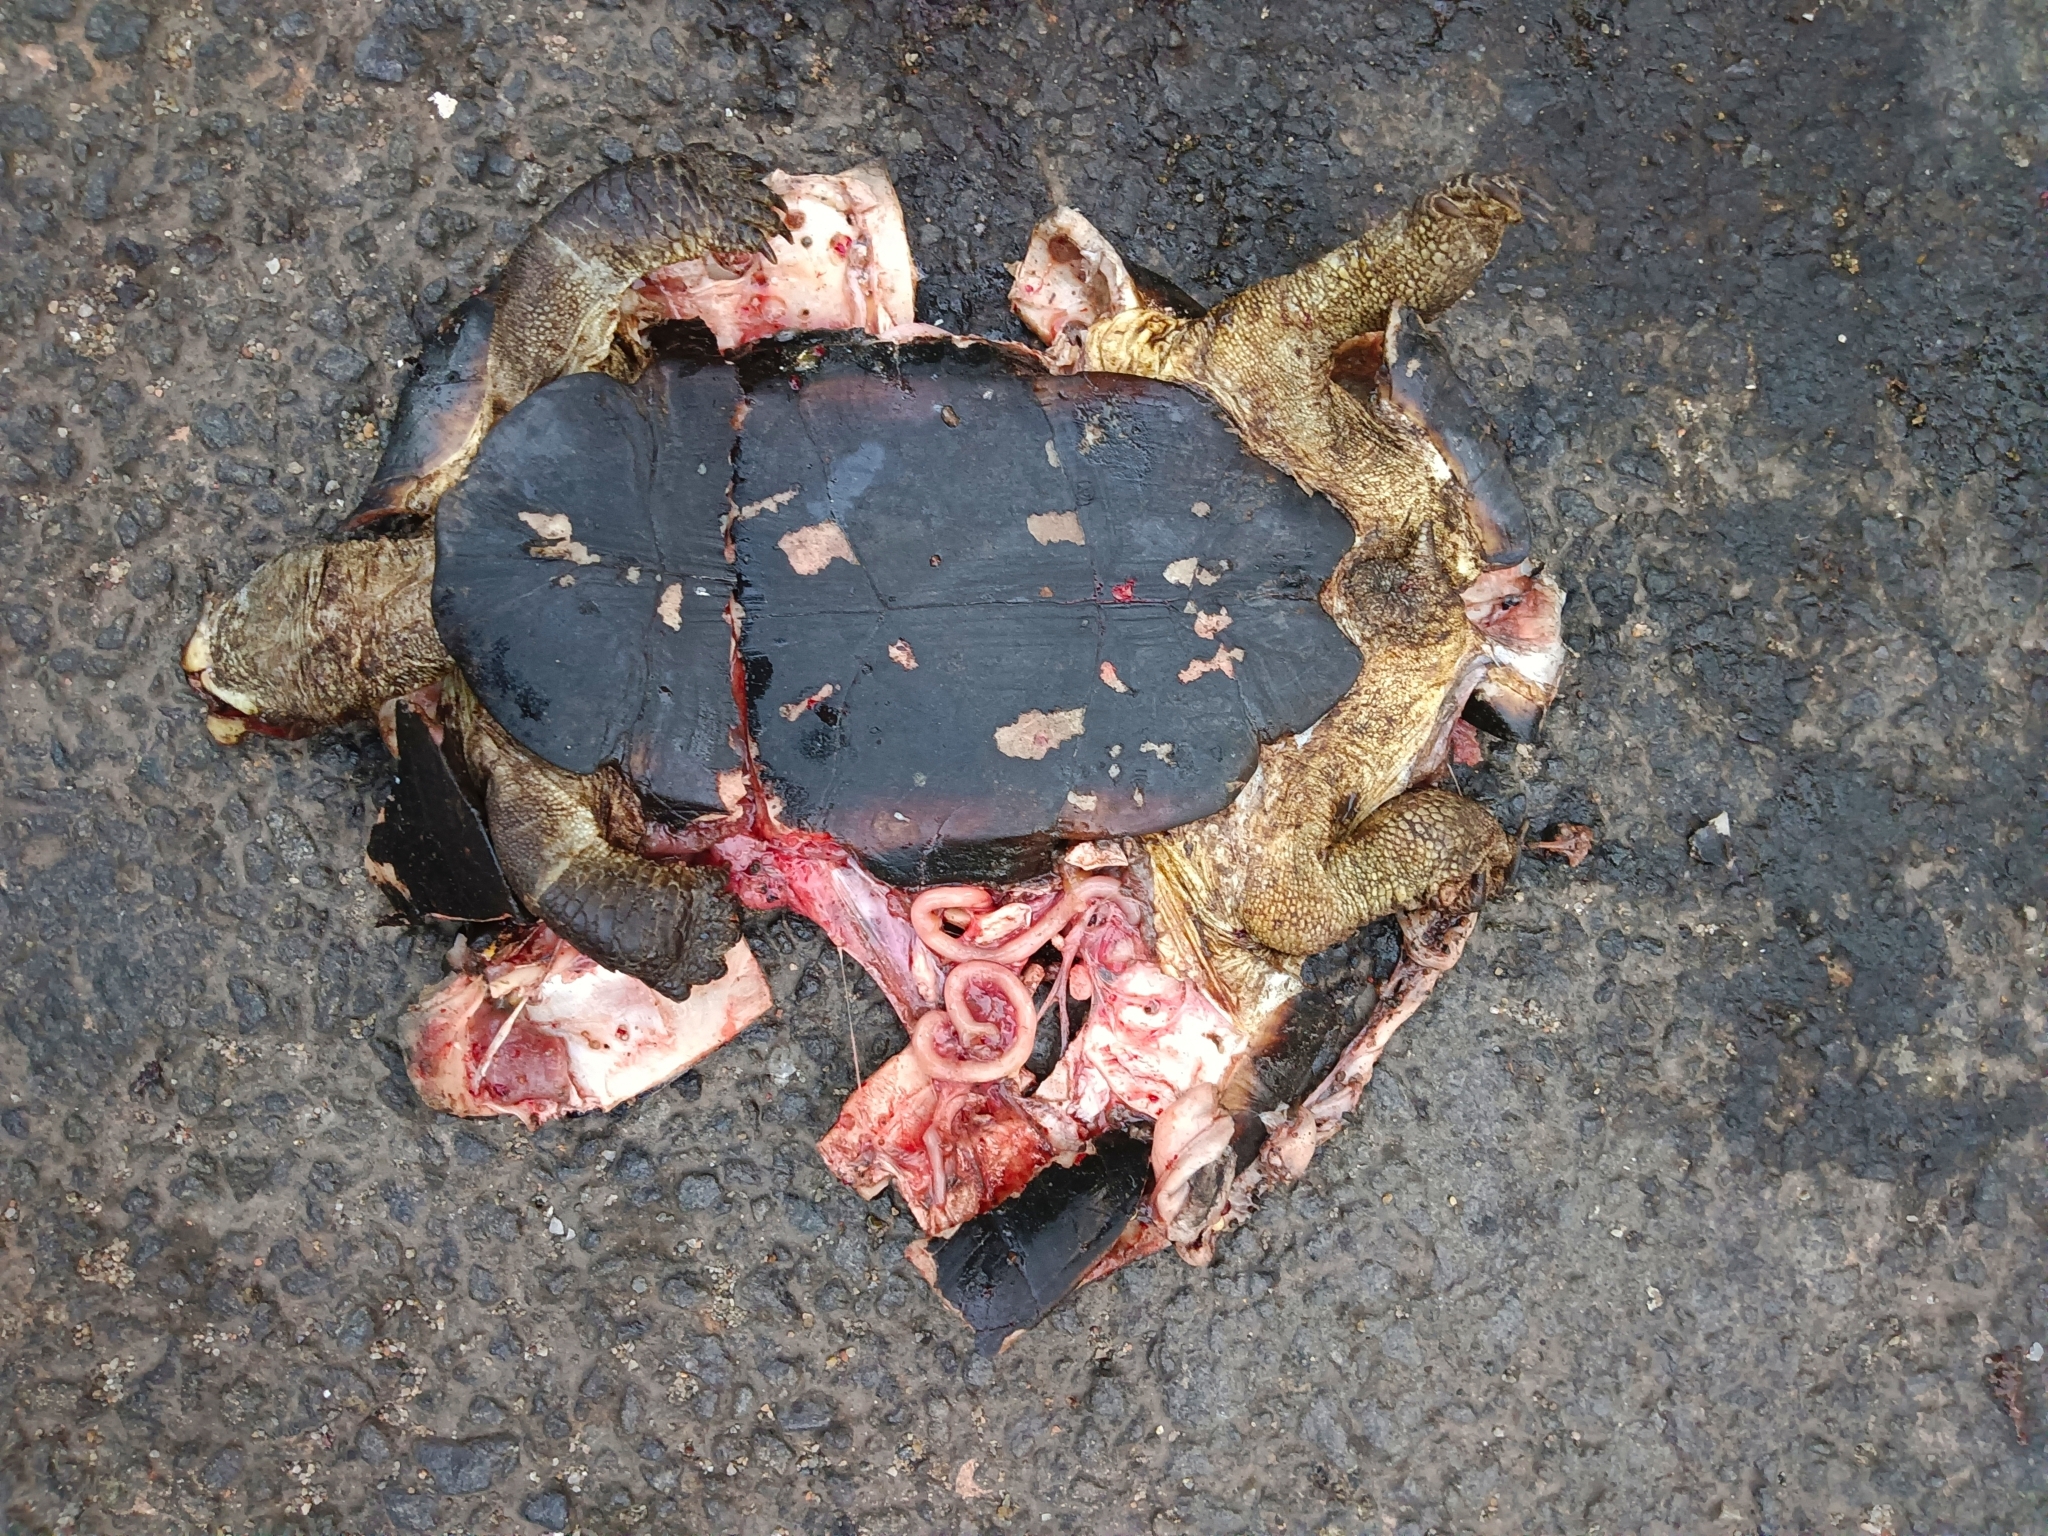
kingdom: Animalia
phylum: Chordata
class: Testudines
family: Geoemydidae
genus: Melanochelys
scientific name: Melanochelys trijuga
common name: Indian black turtle
